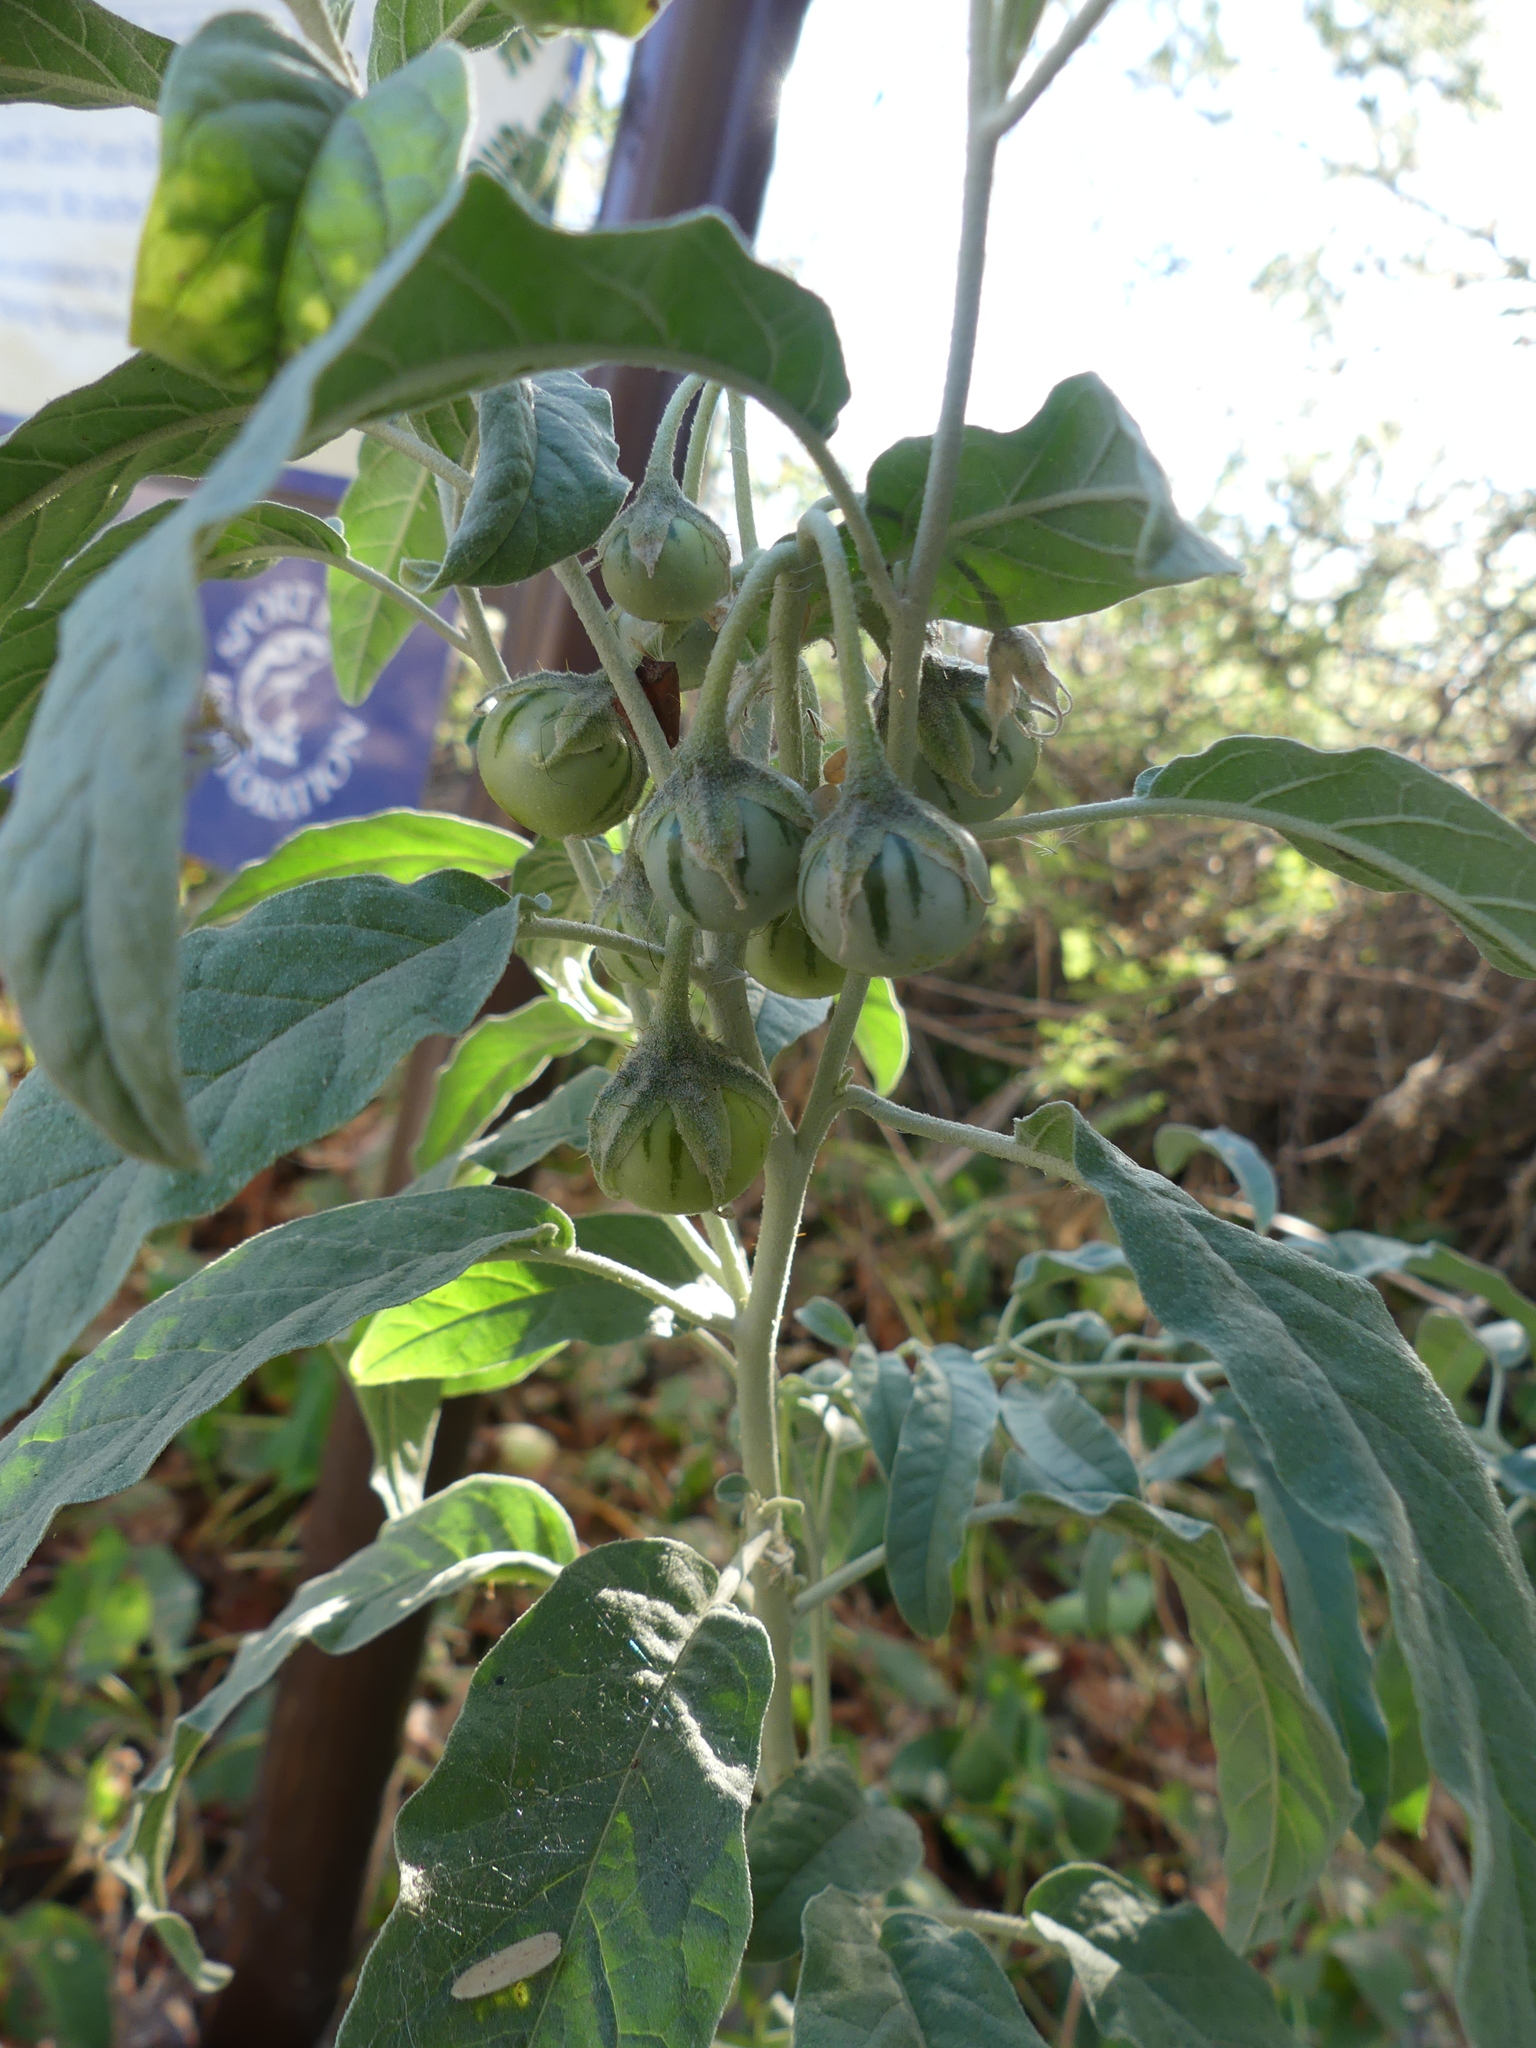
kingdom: Plantae
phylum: Tracheophyta
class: Magnoliopsida
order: Solanales
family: Solanaceae
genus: Solanum
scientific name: Solanum elaeagnifolium
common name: Silverleaf nightshade
